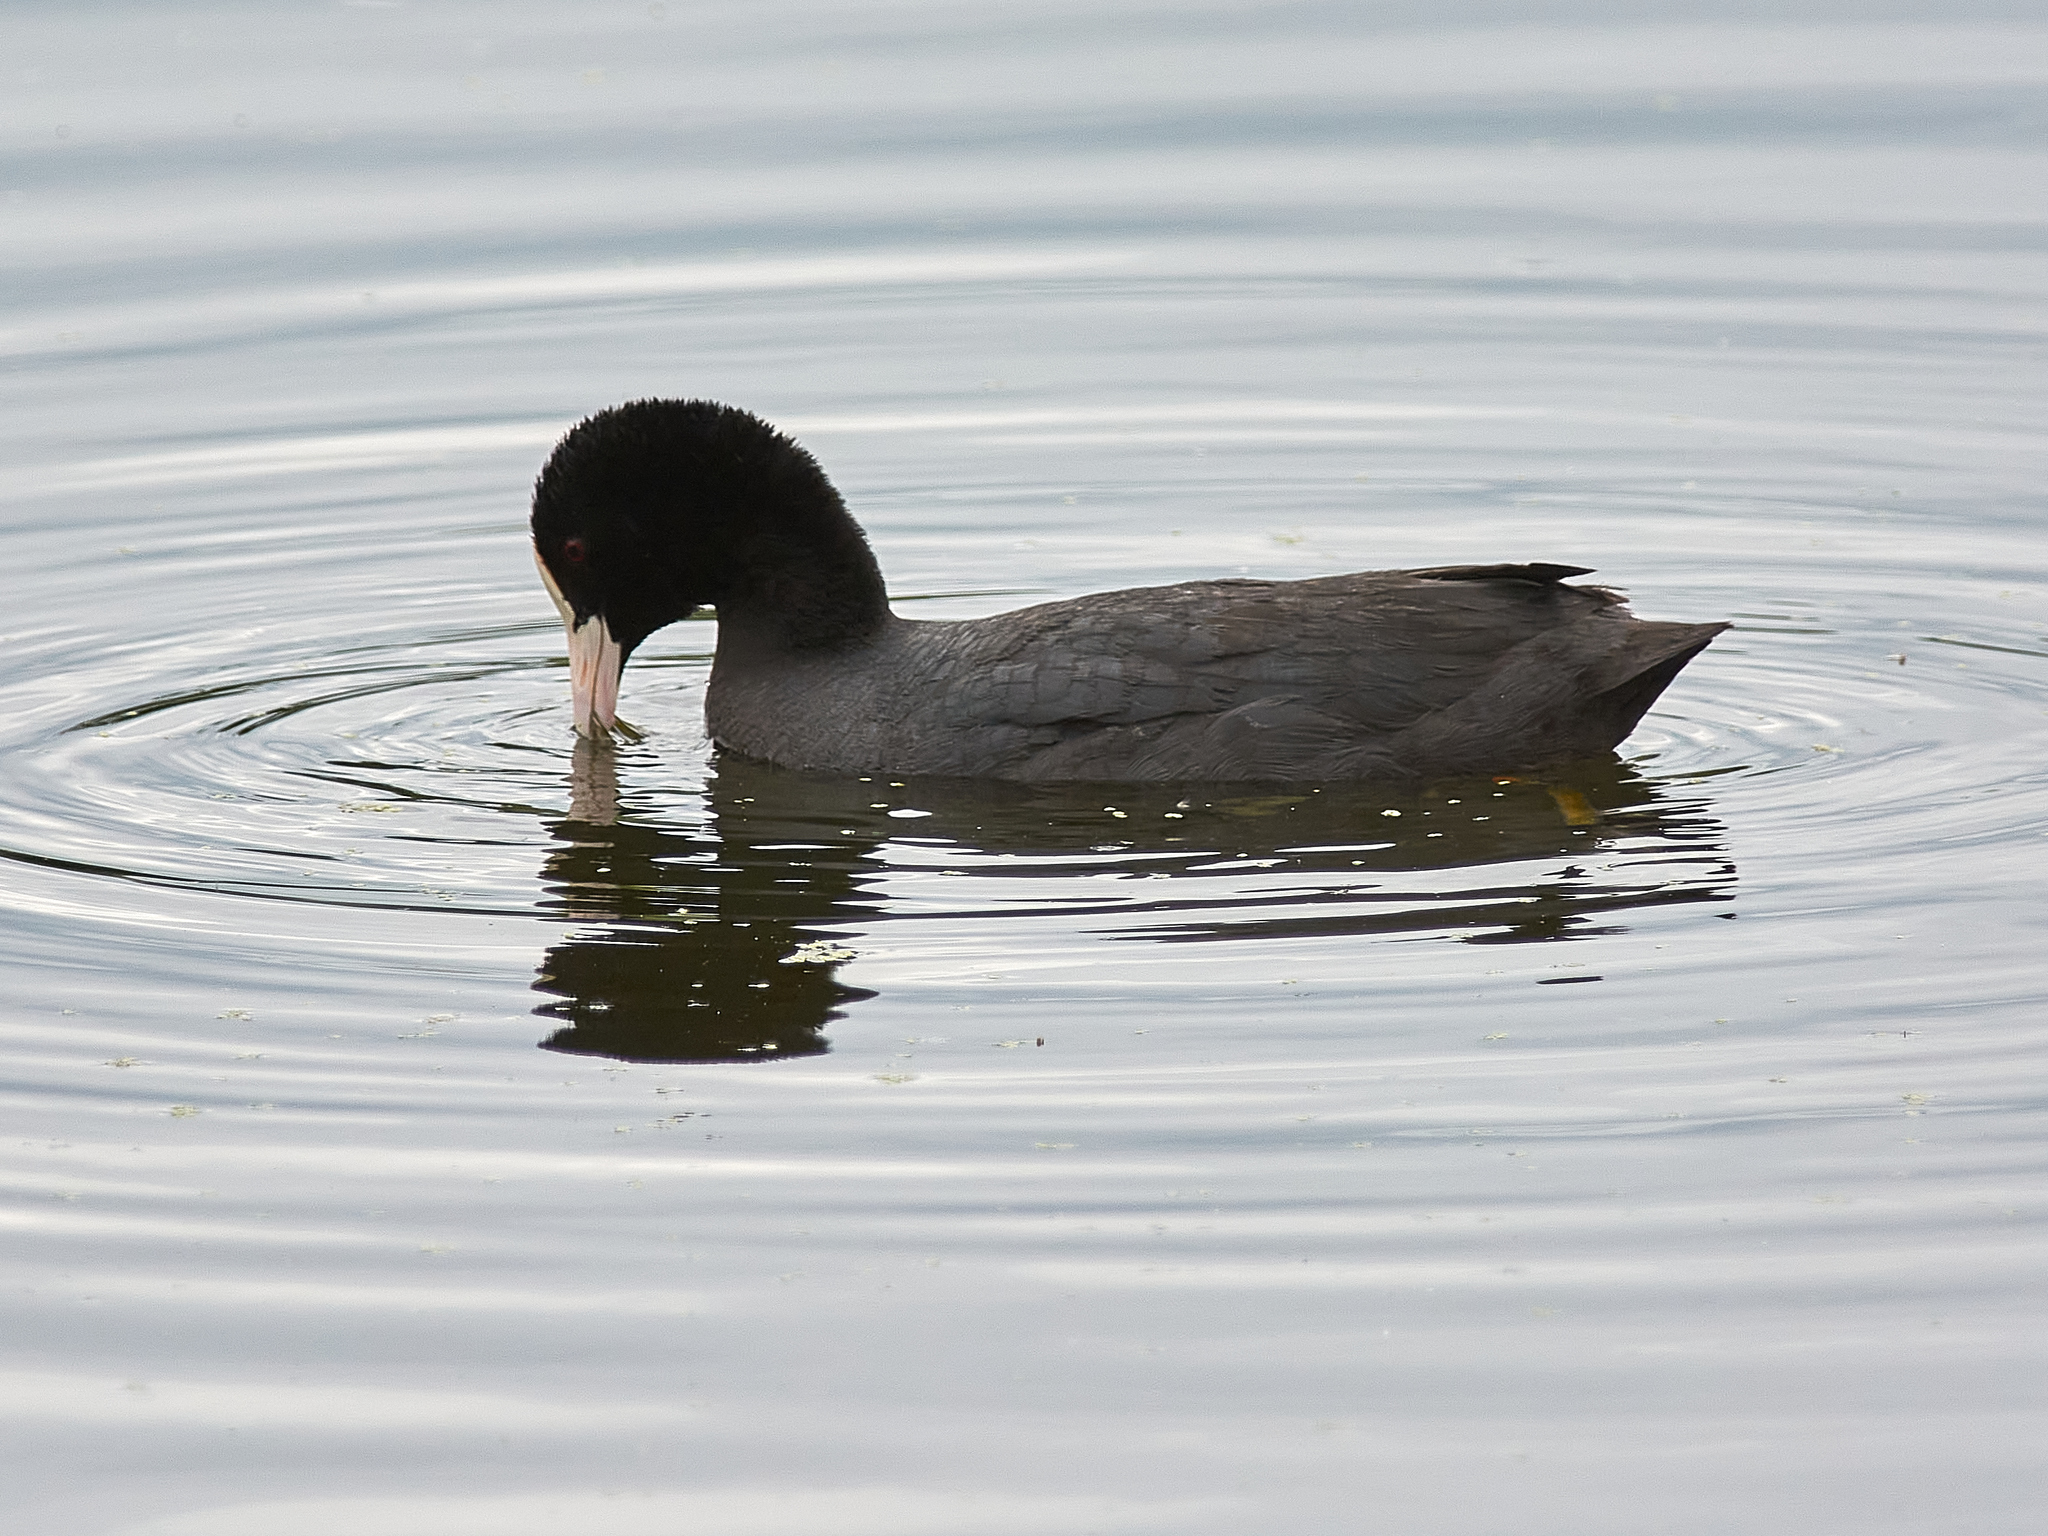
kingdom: Animalia
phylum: Chordata
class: Aves
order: Gruiformes
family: Rallidae
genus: Fulica
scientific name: Fulica atra
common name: Eurasian coot
